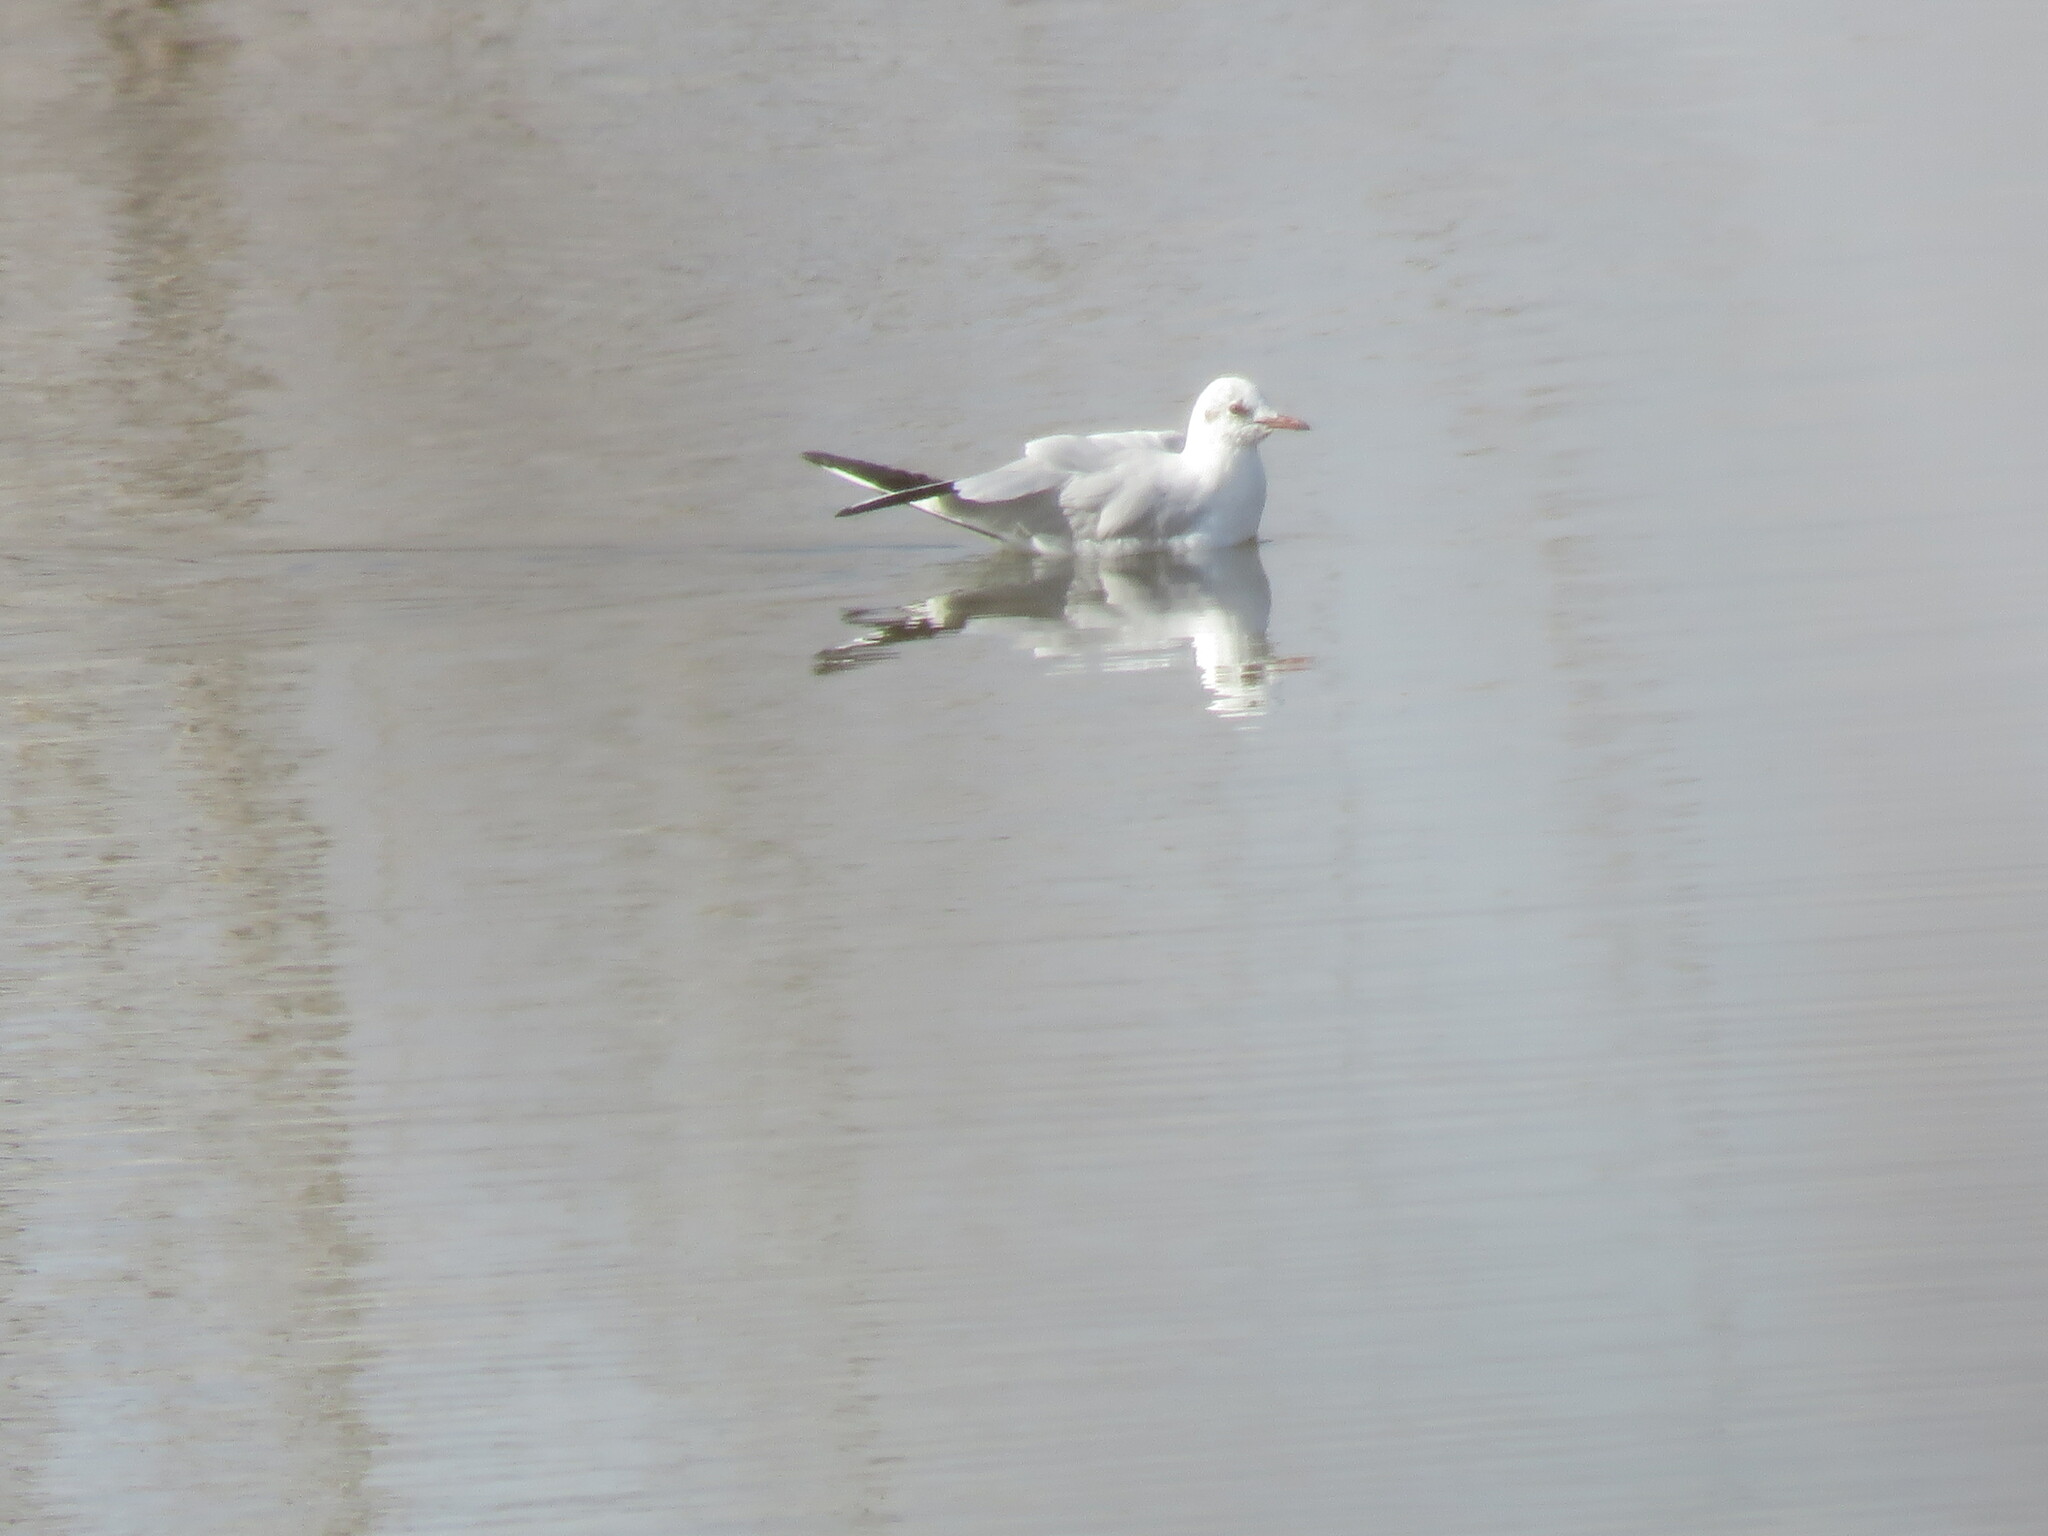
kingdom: Animalia
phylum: Chordata
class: Aves
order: Charadriiformes
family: Laridae
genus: Chroicocephalus
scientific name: Chroicocephalus ridibundus
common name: Black-headed gull
